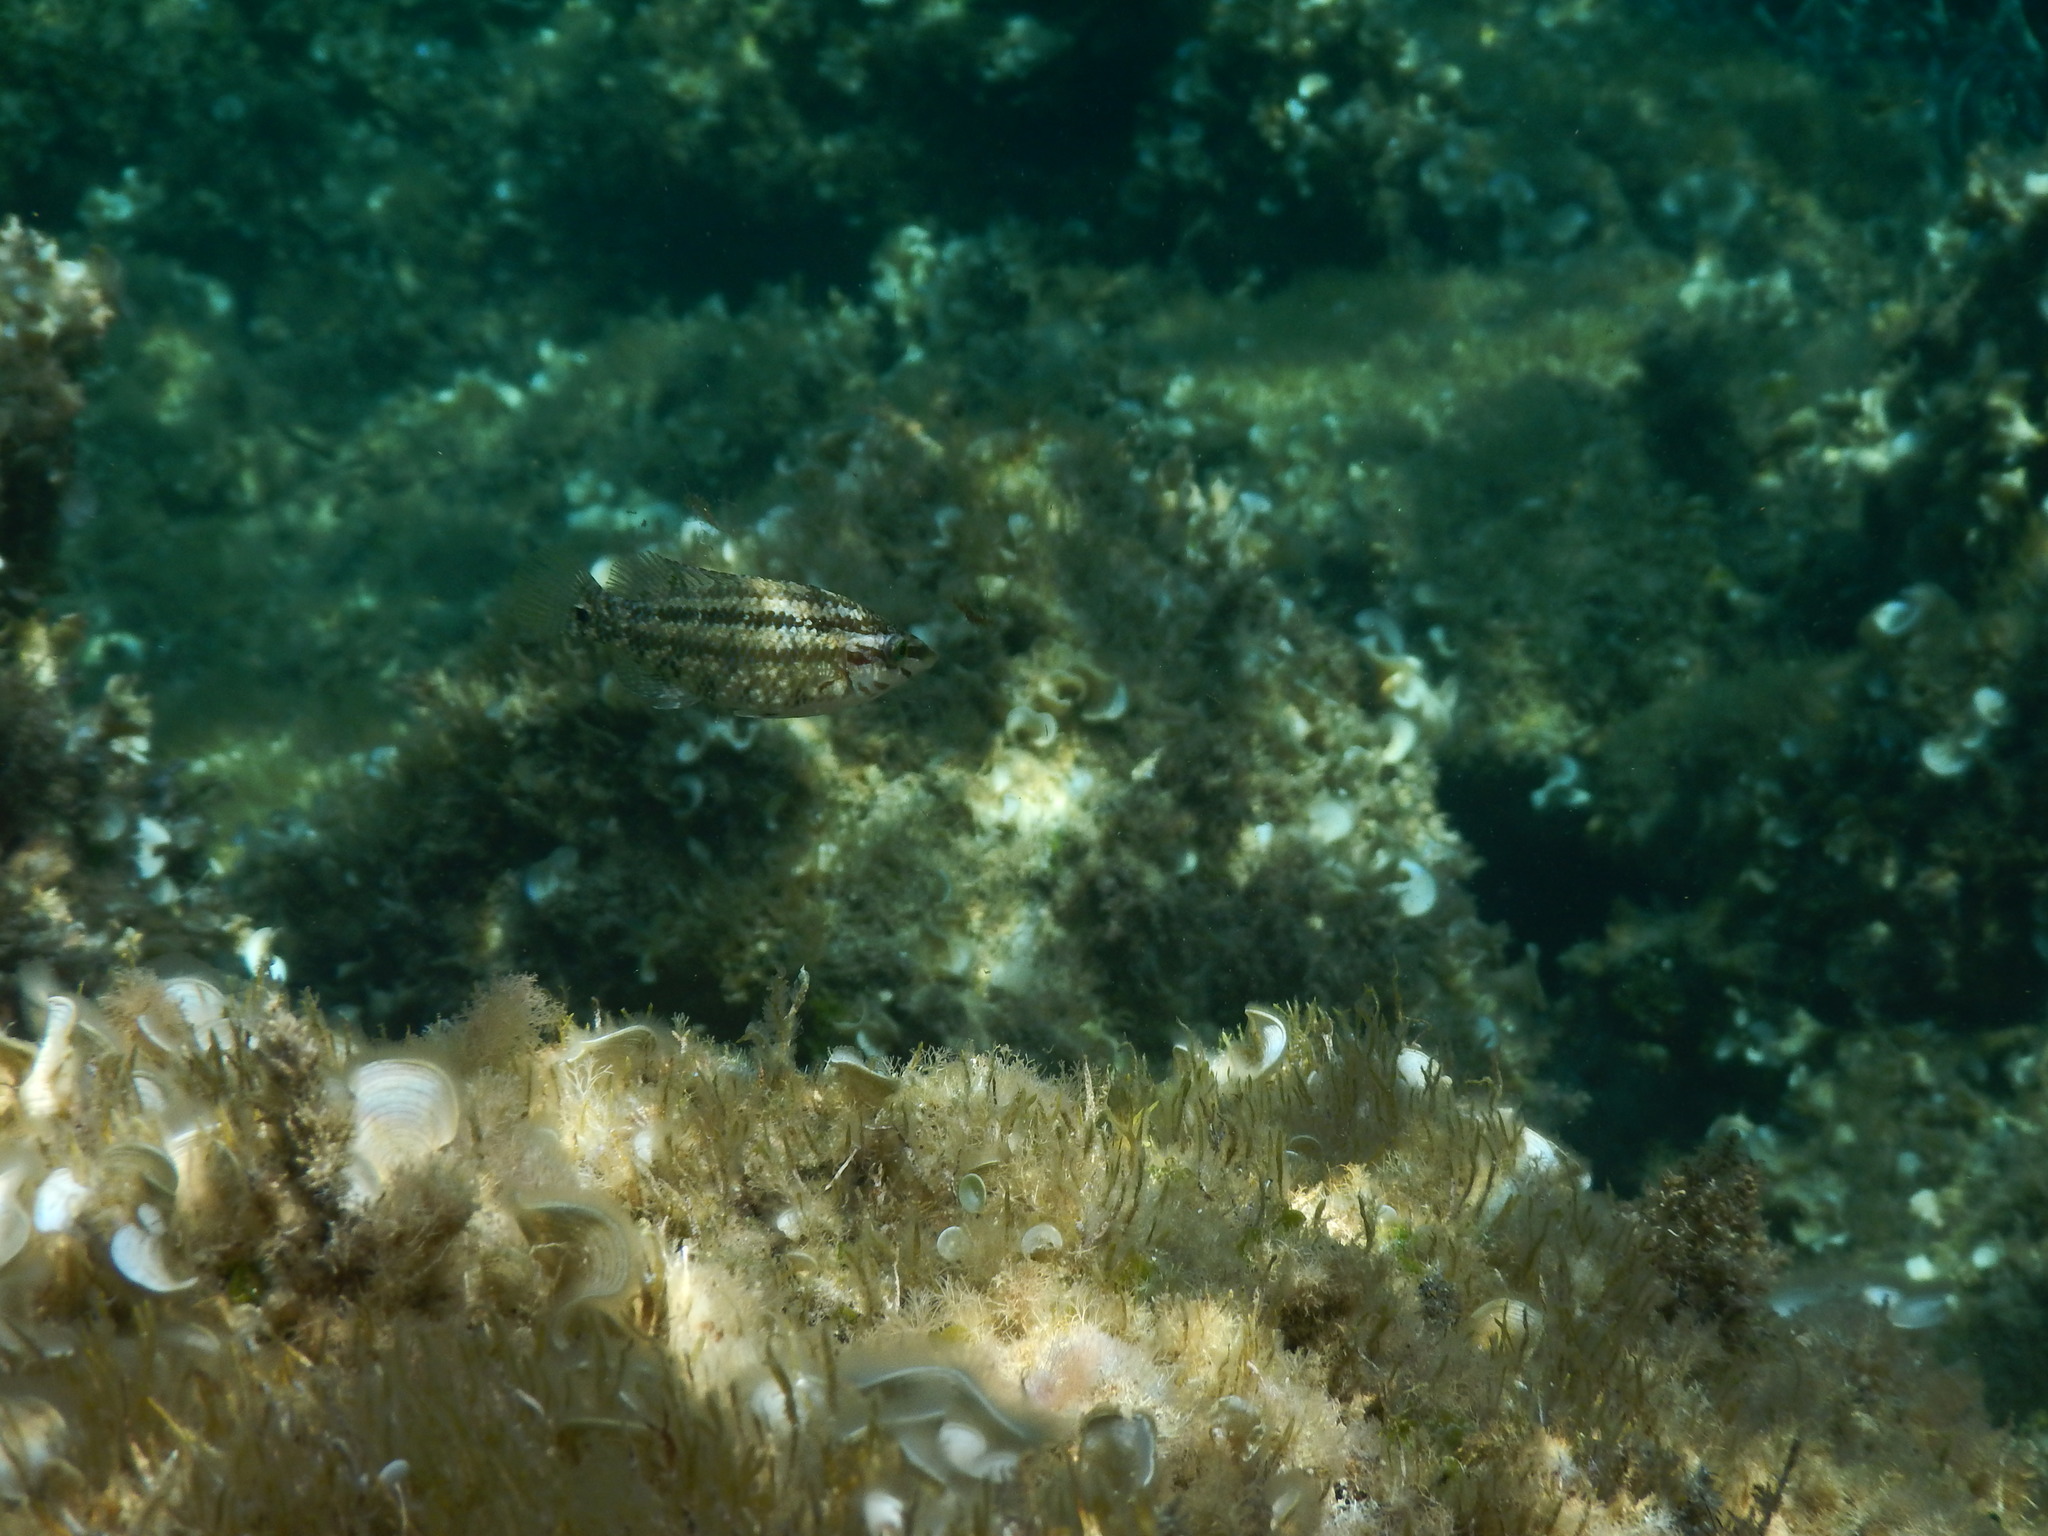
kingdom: Animalia
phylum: Chordata
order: Perciformes
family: Labridae
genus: Symphodus
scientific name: Symphodus roissali
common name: Five-spotted wrasse
